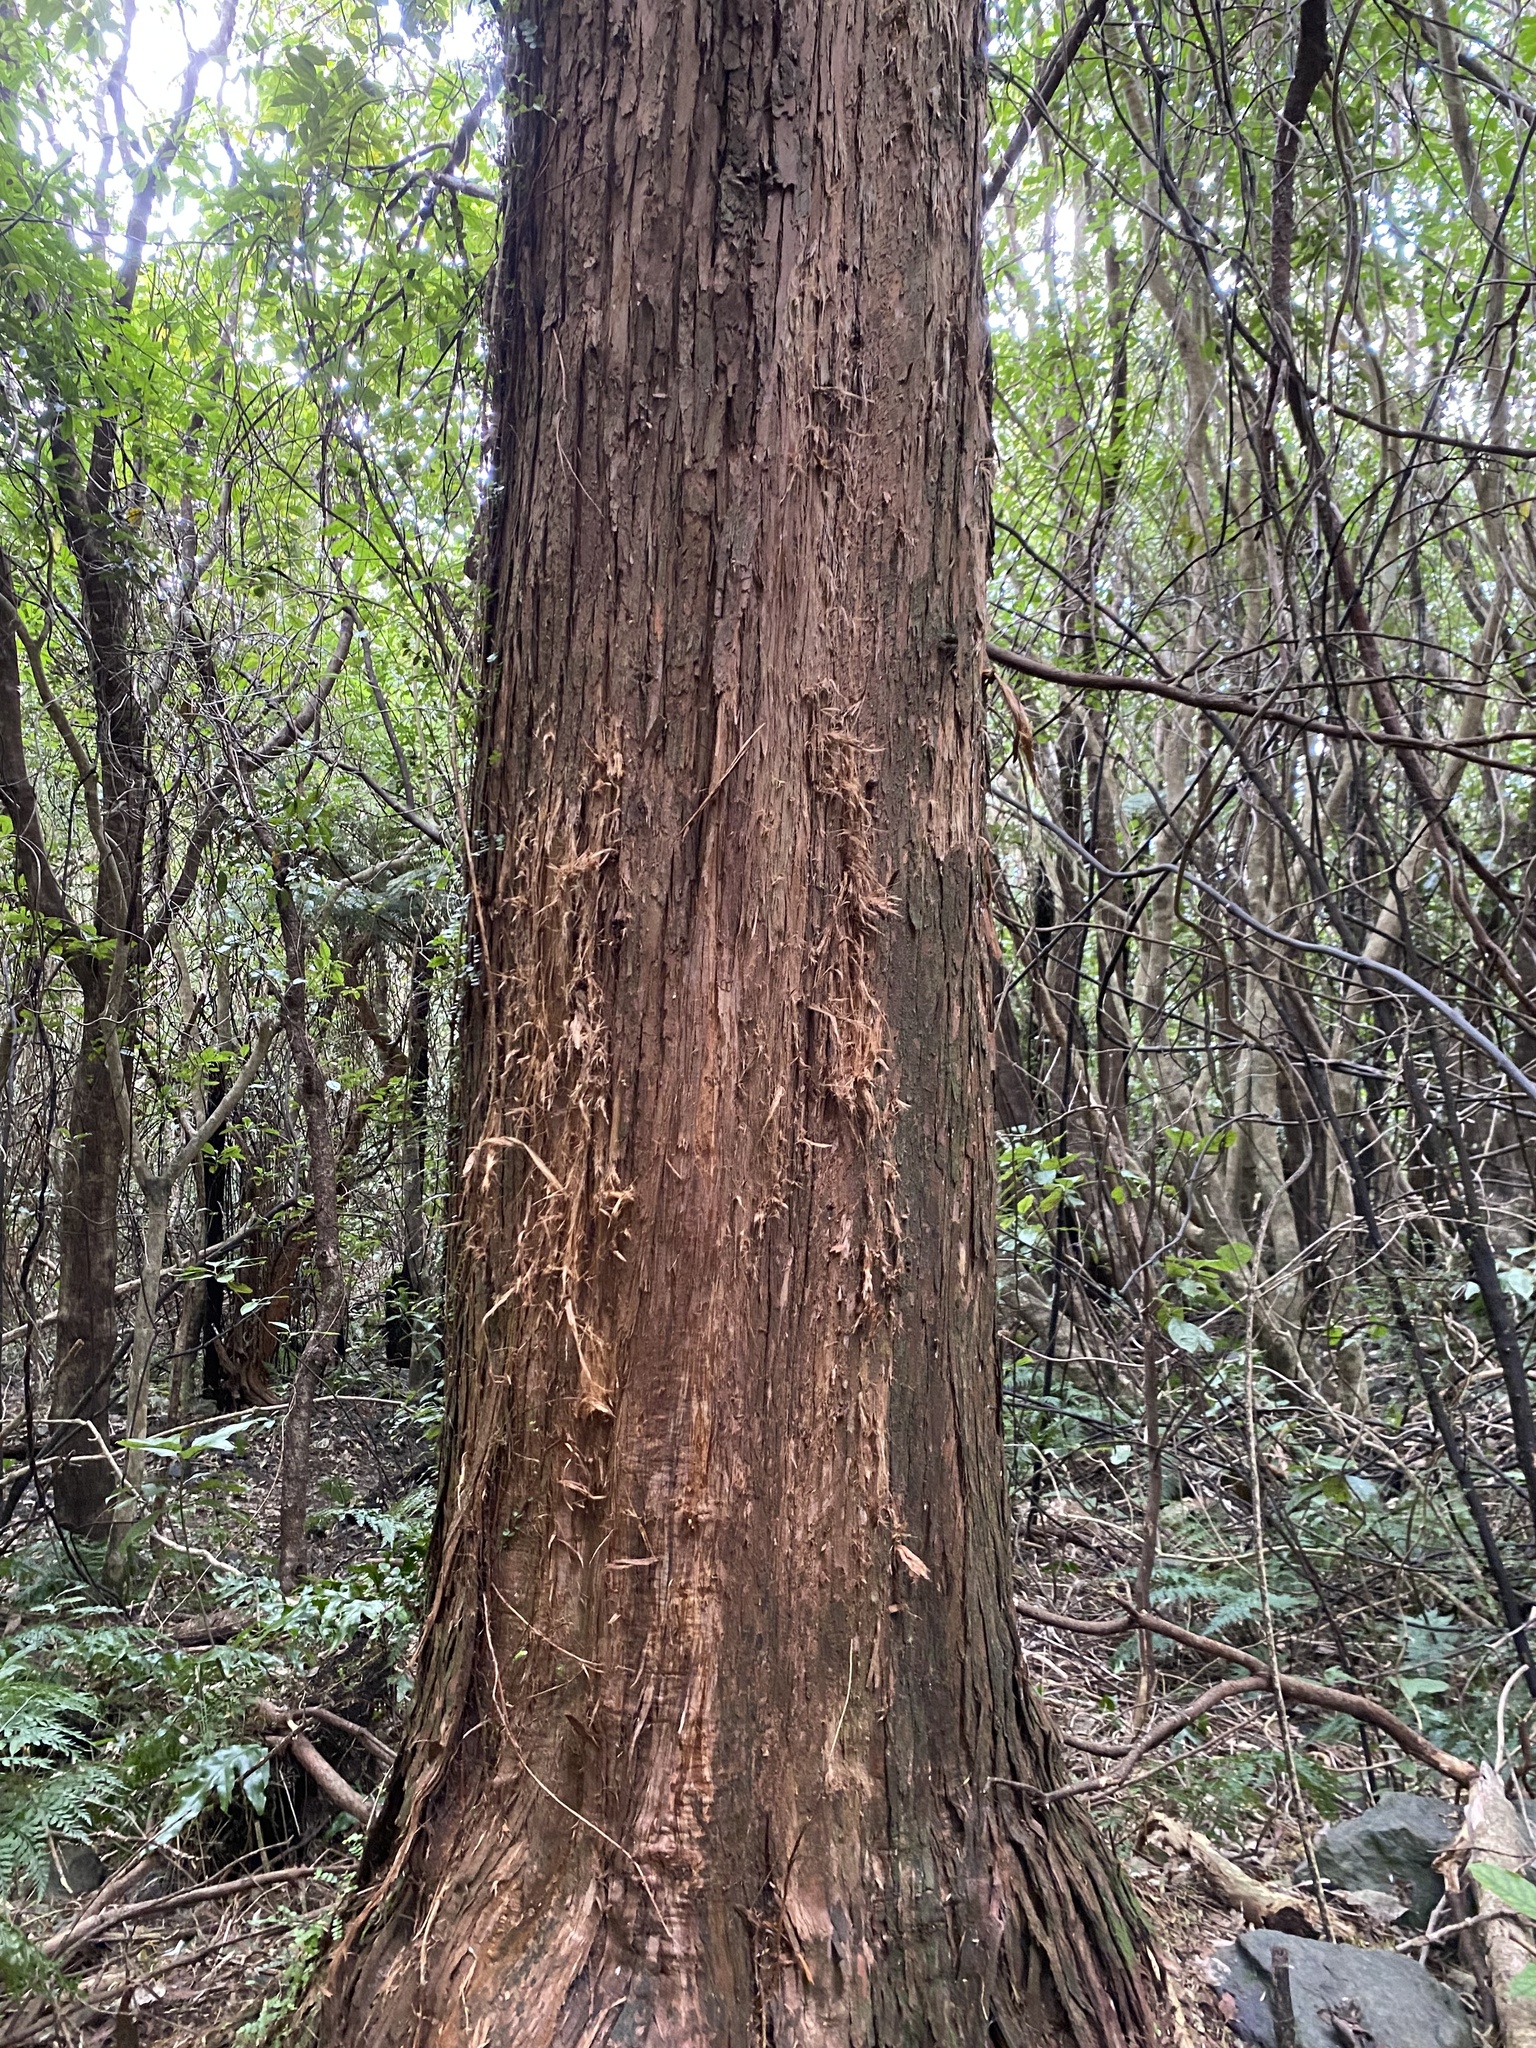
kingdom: Plantae
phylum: Tracheophyta
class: Pinopsida
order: Pinales
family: Podocarpaceae
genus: Podocarpus
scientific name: Podocarpus totara
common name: Totara
